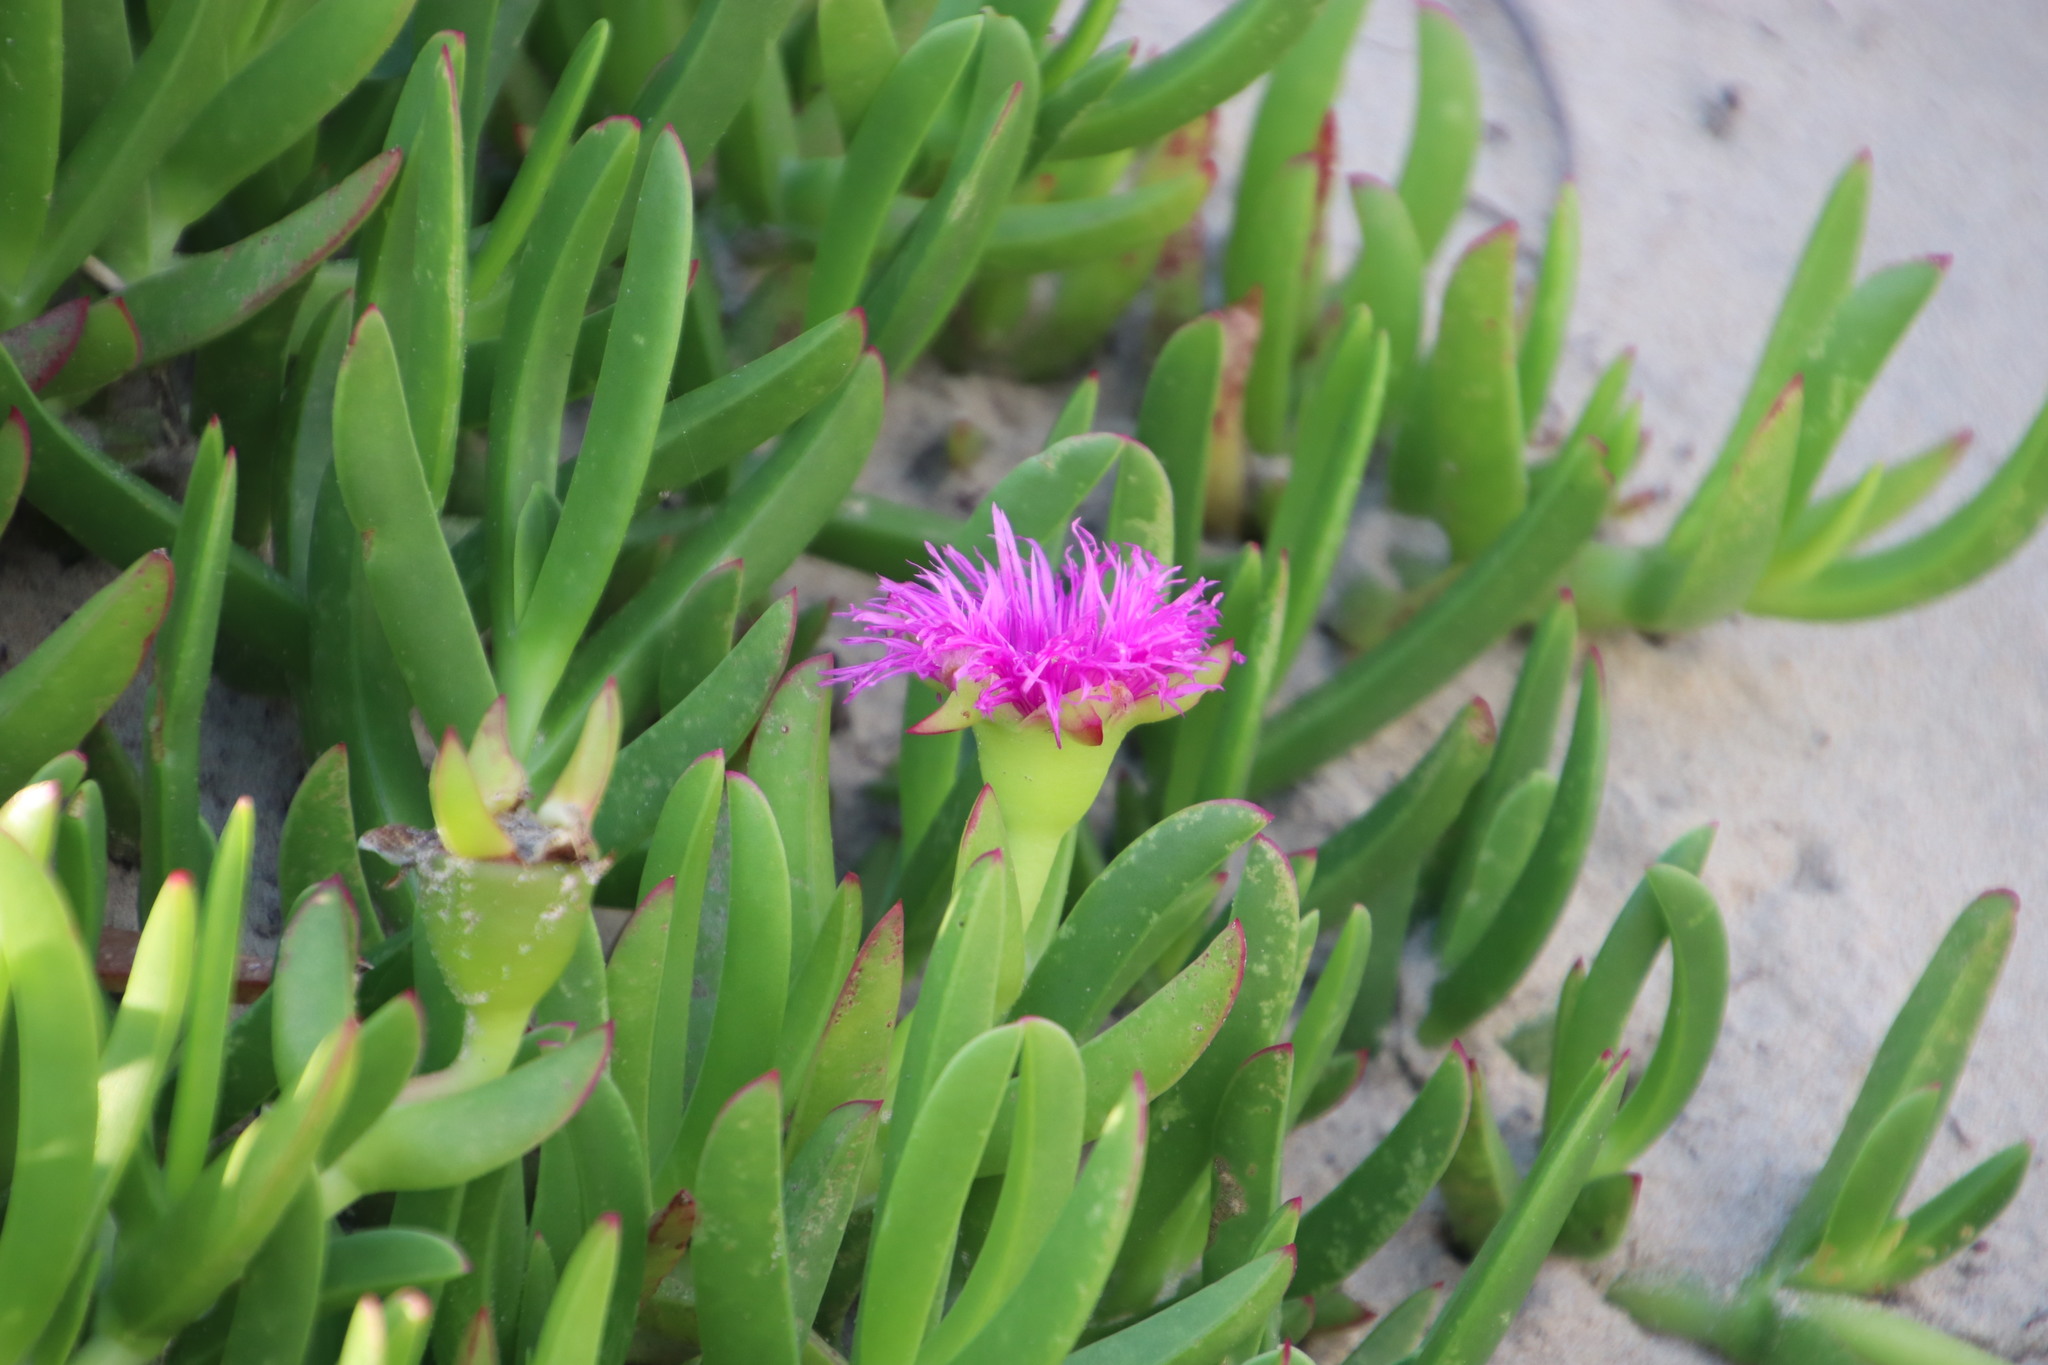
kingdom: Plantae
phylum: Tracheophyta
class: Magnoliopsida
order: Caryophyllales
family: Aizoaceae
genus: Carpobrotus
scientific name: Carpobrotus deliciosus
